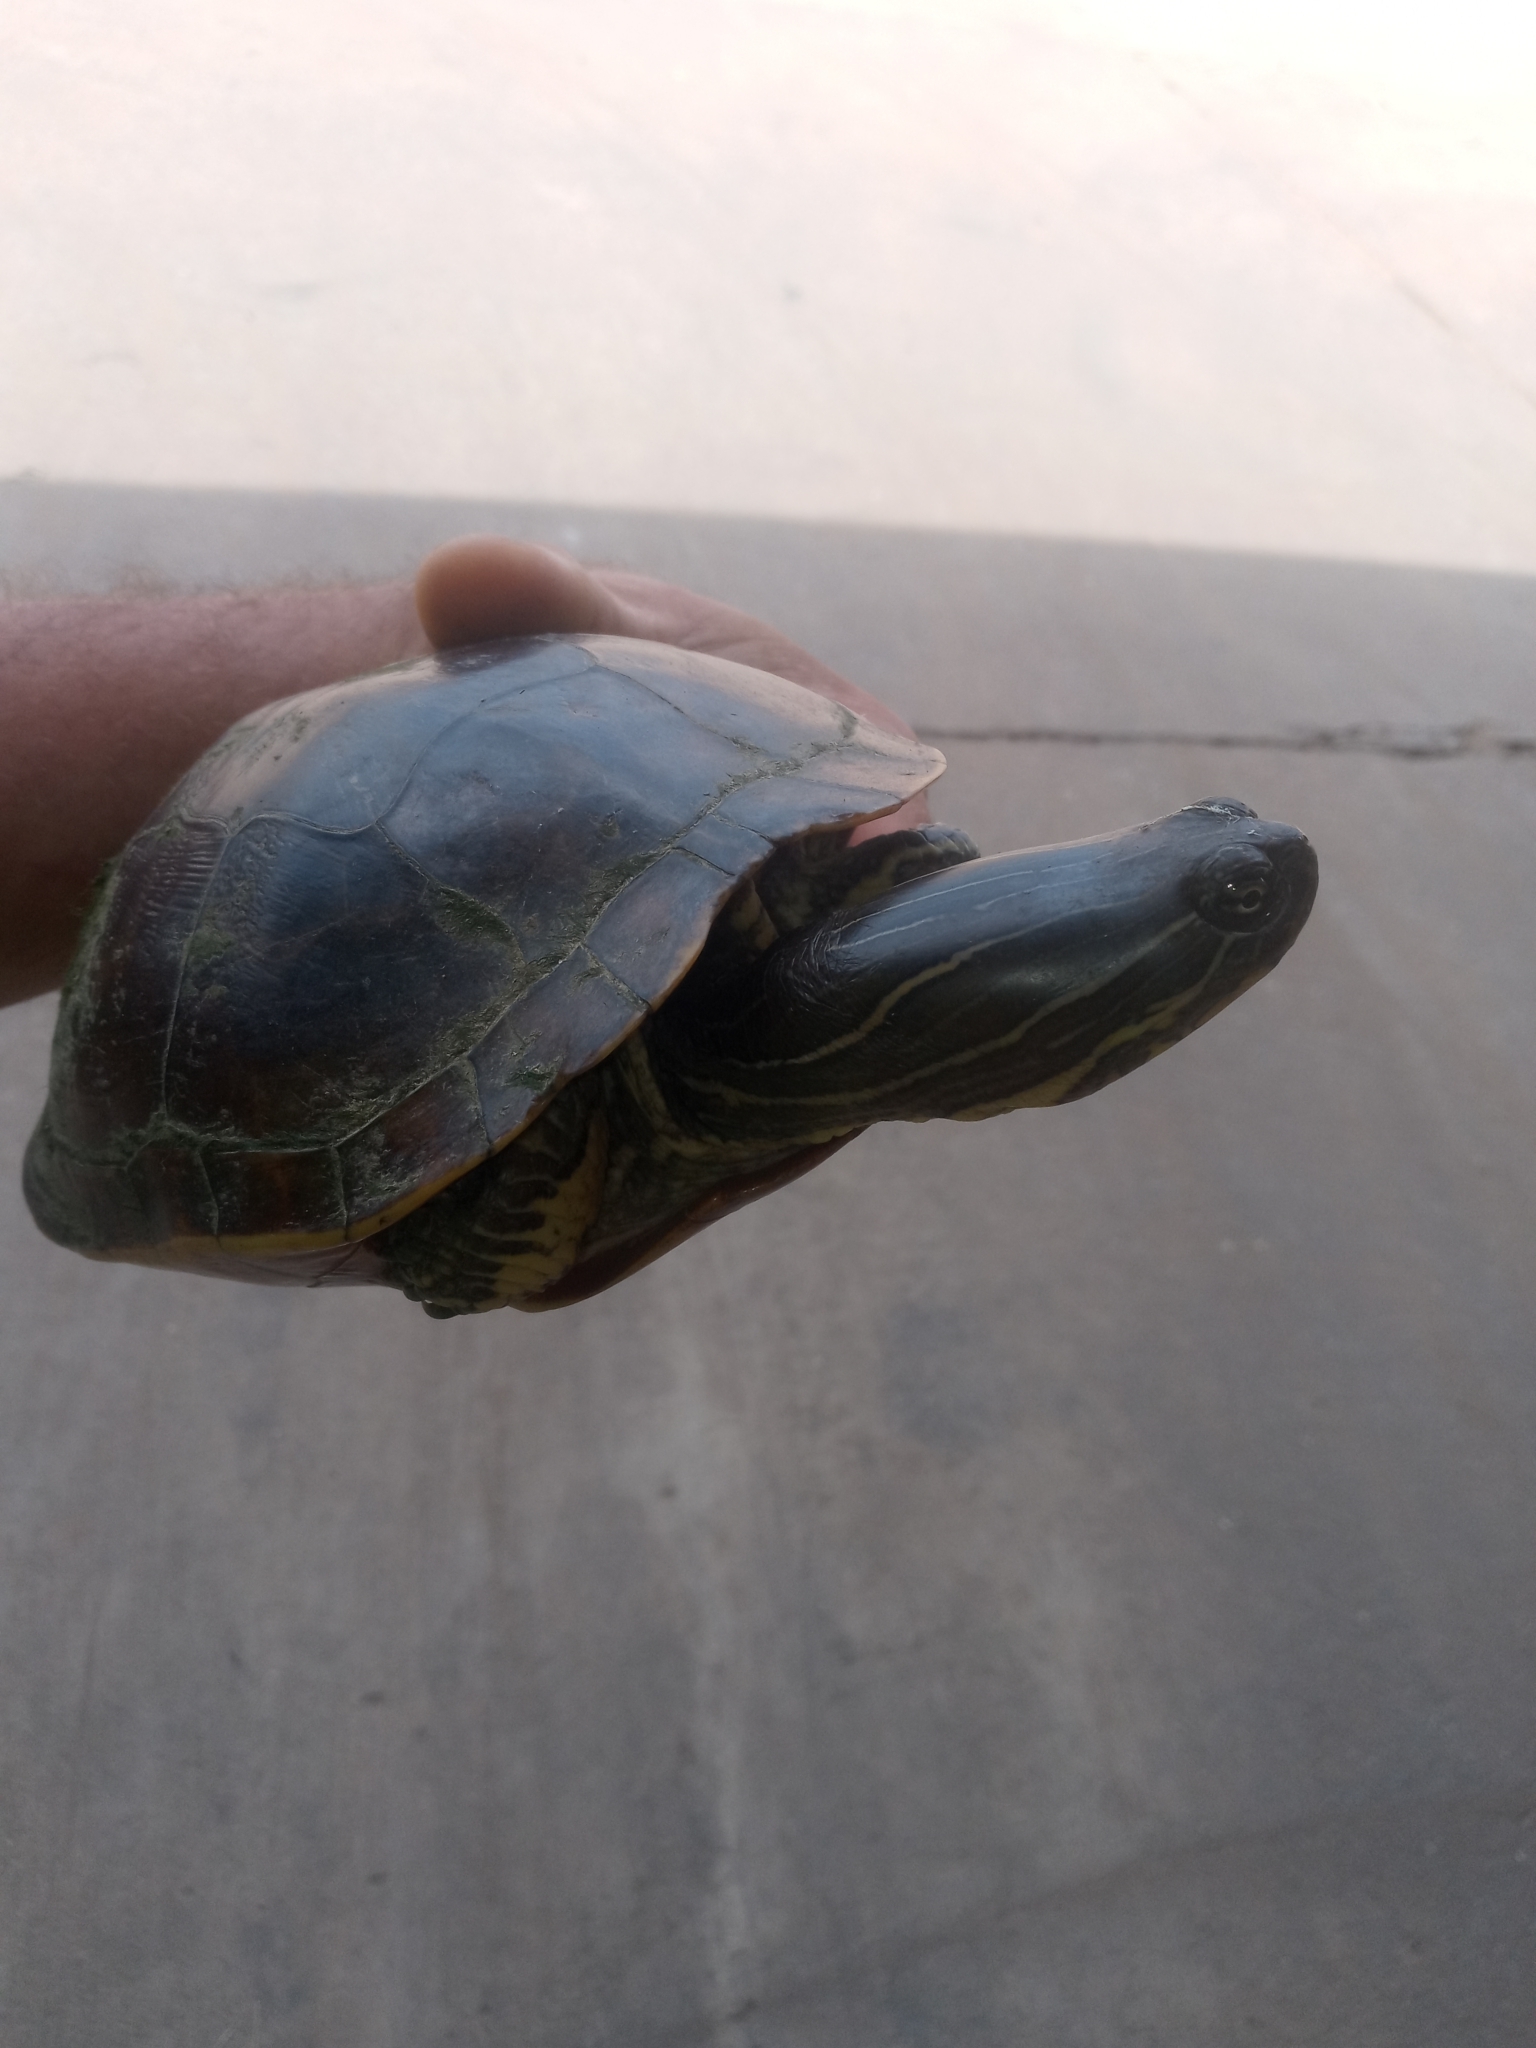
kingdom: Animalia
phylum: Chordata
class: Testudines
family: Emydidae
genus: Deirochelys
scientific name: Deirochelys reticularia
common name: Chicken turtle
